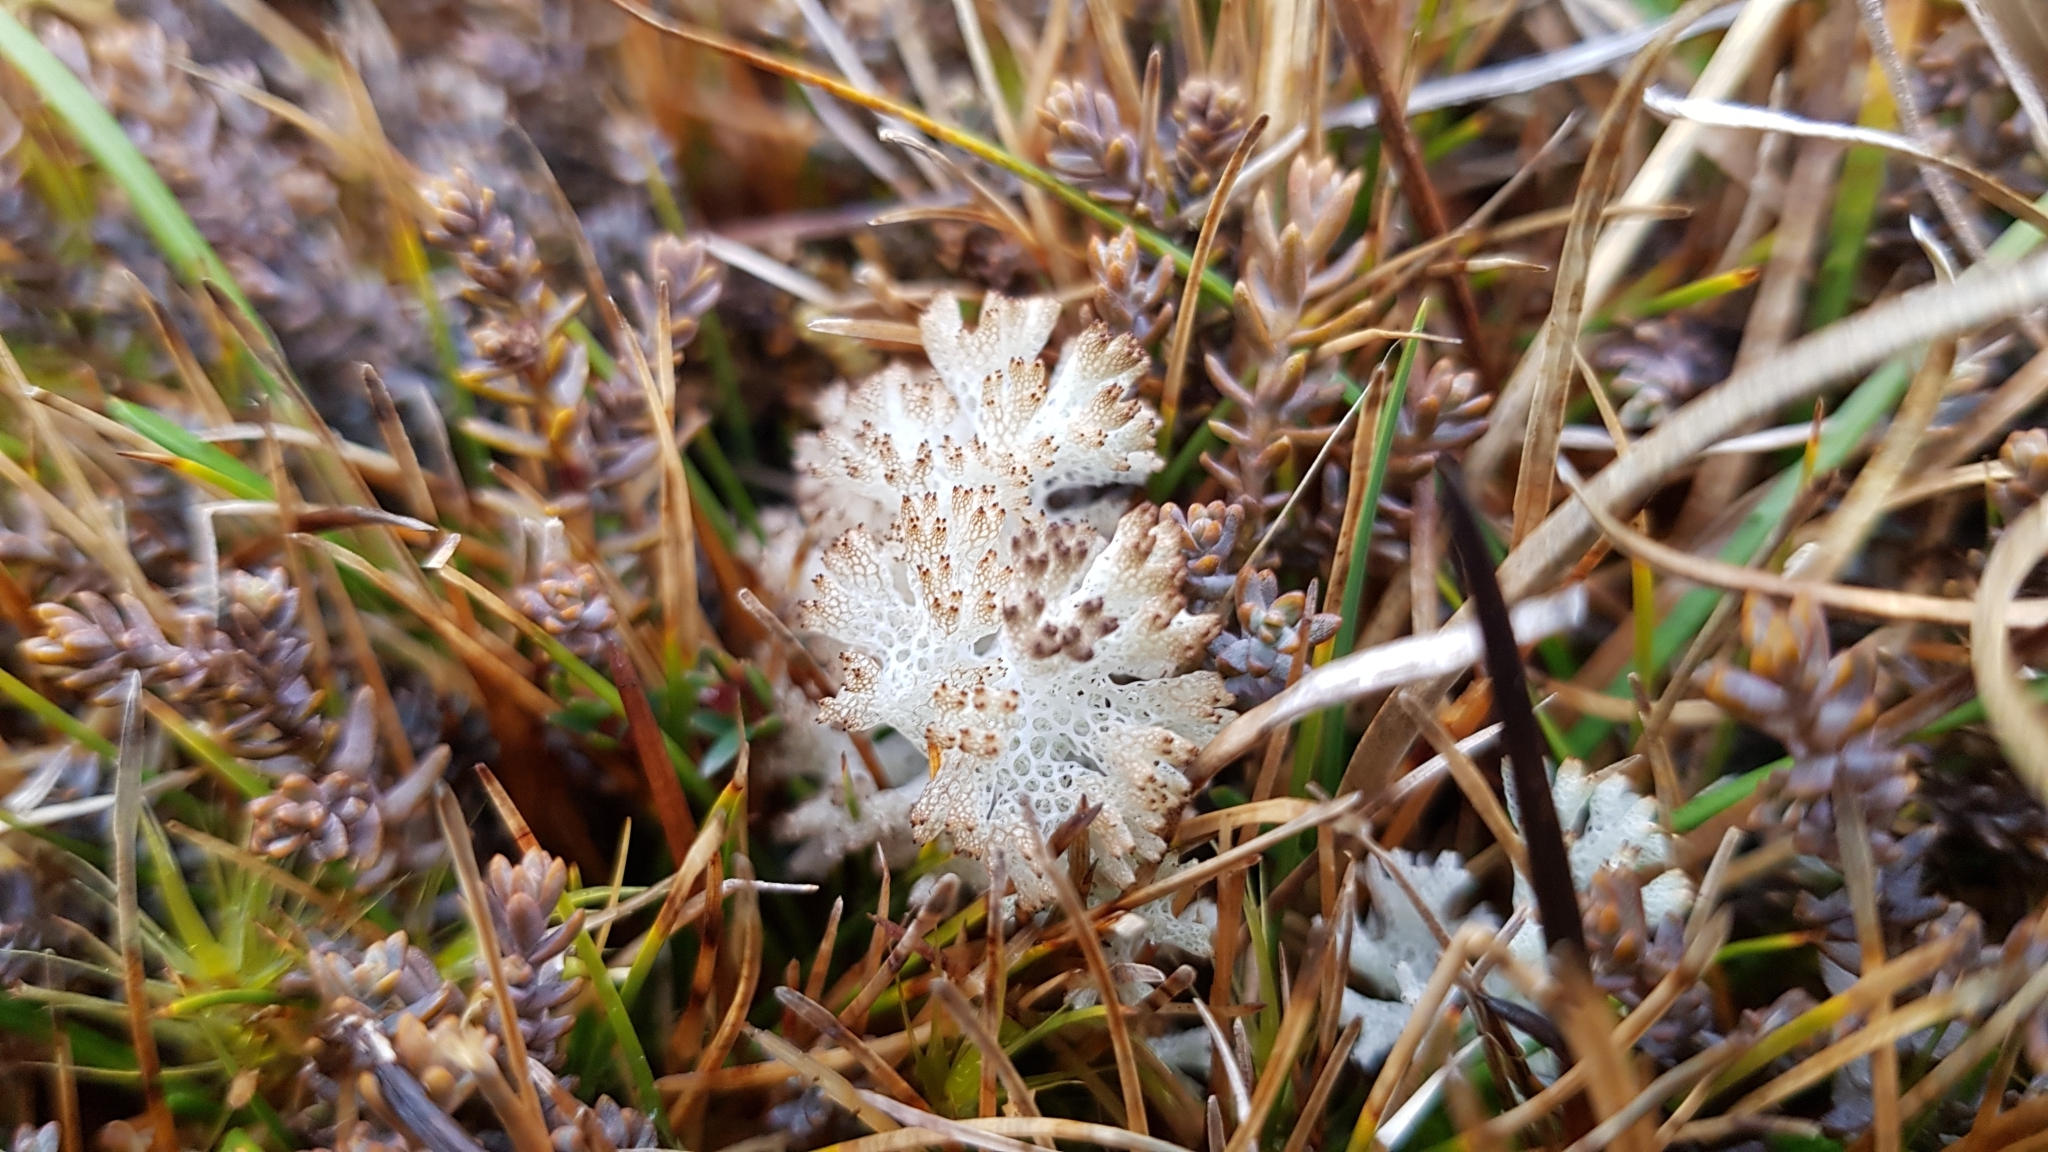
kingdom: Fungi
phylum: Ascomycota
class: Lecanoromycetes
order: Lecanorales
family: Cladoniaceae
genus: Pulchrocladia
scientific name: Pulchrocladia retipora
